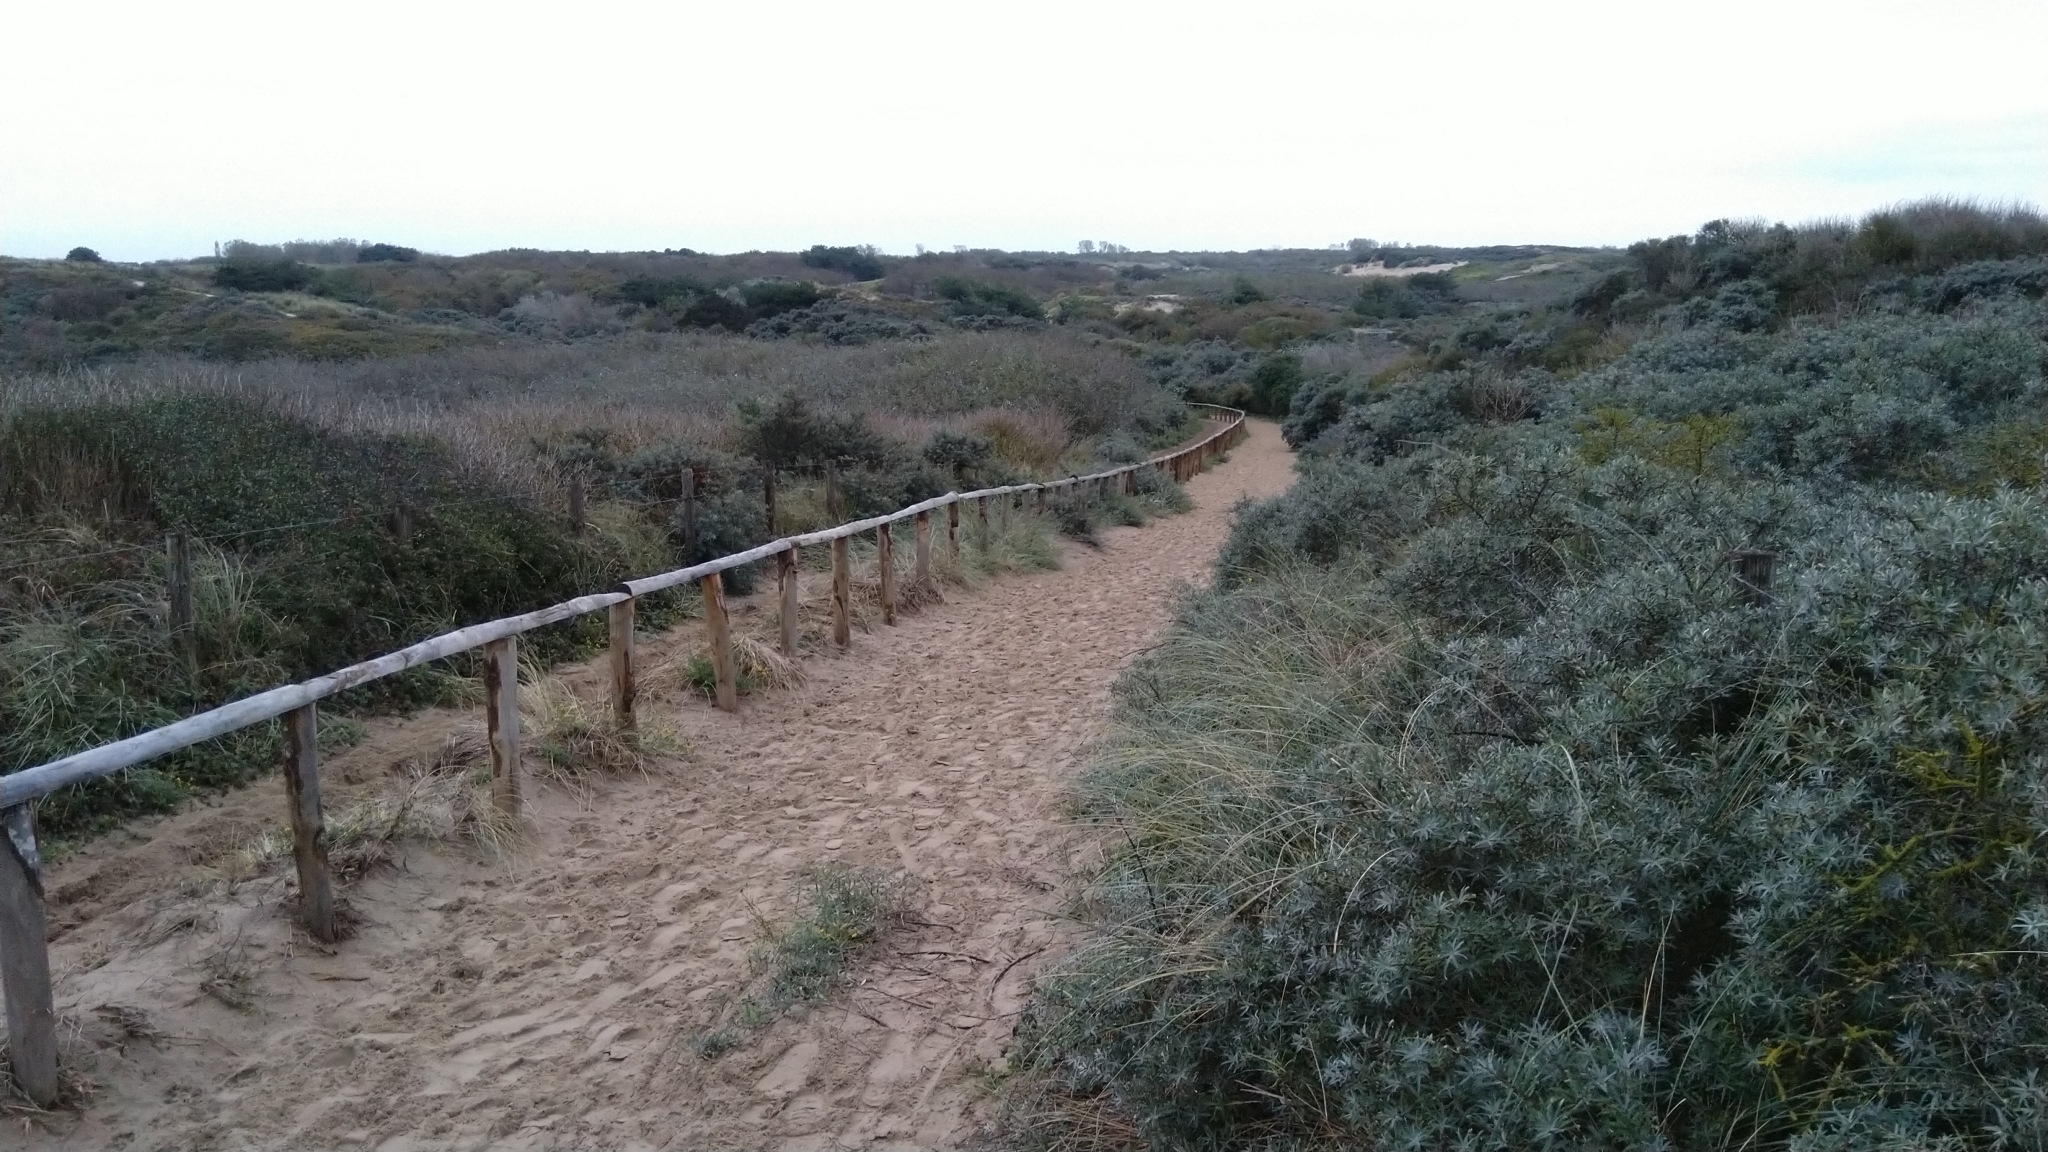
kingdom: Plantae
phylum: Tracheophyta
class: Magnoliopsida
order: Rosales
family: Elaeagnaceae
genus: Hippophae
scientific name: Hippophae rhamnoides
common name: Sea-buckthorn
